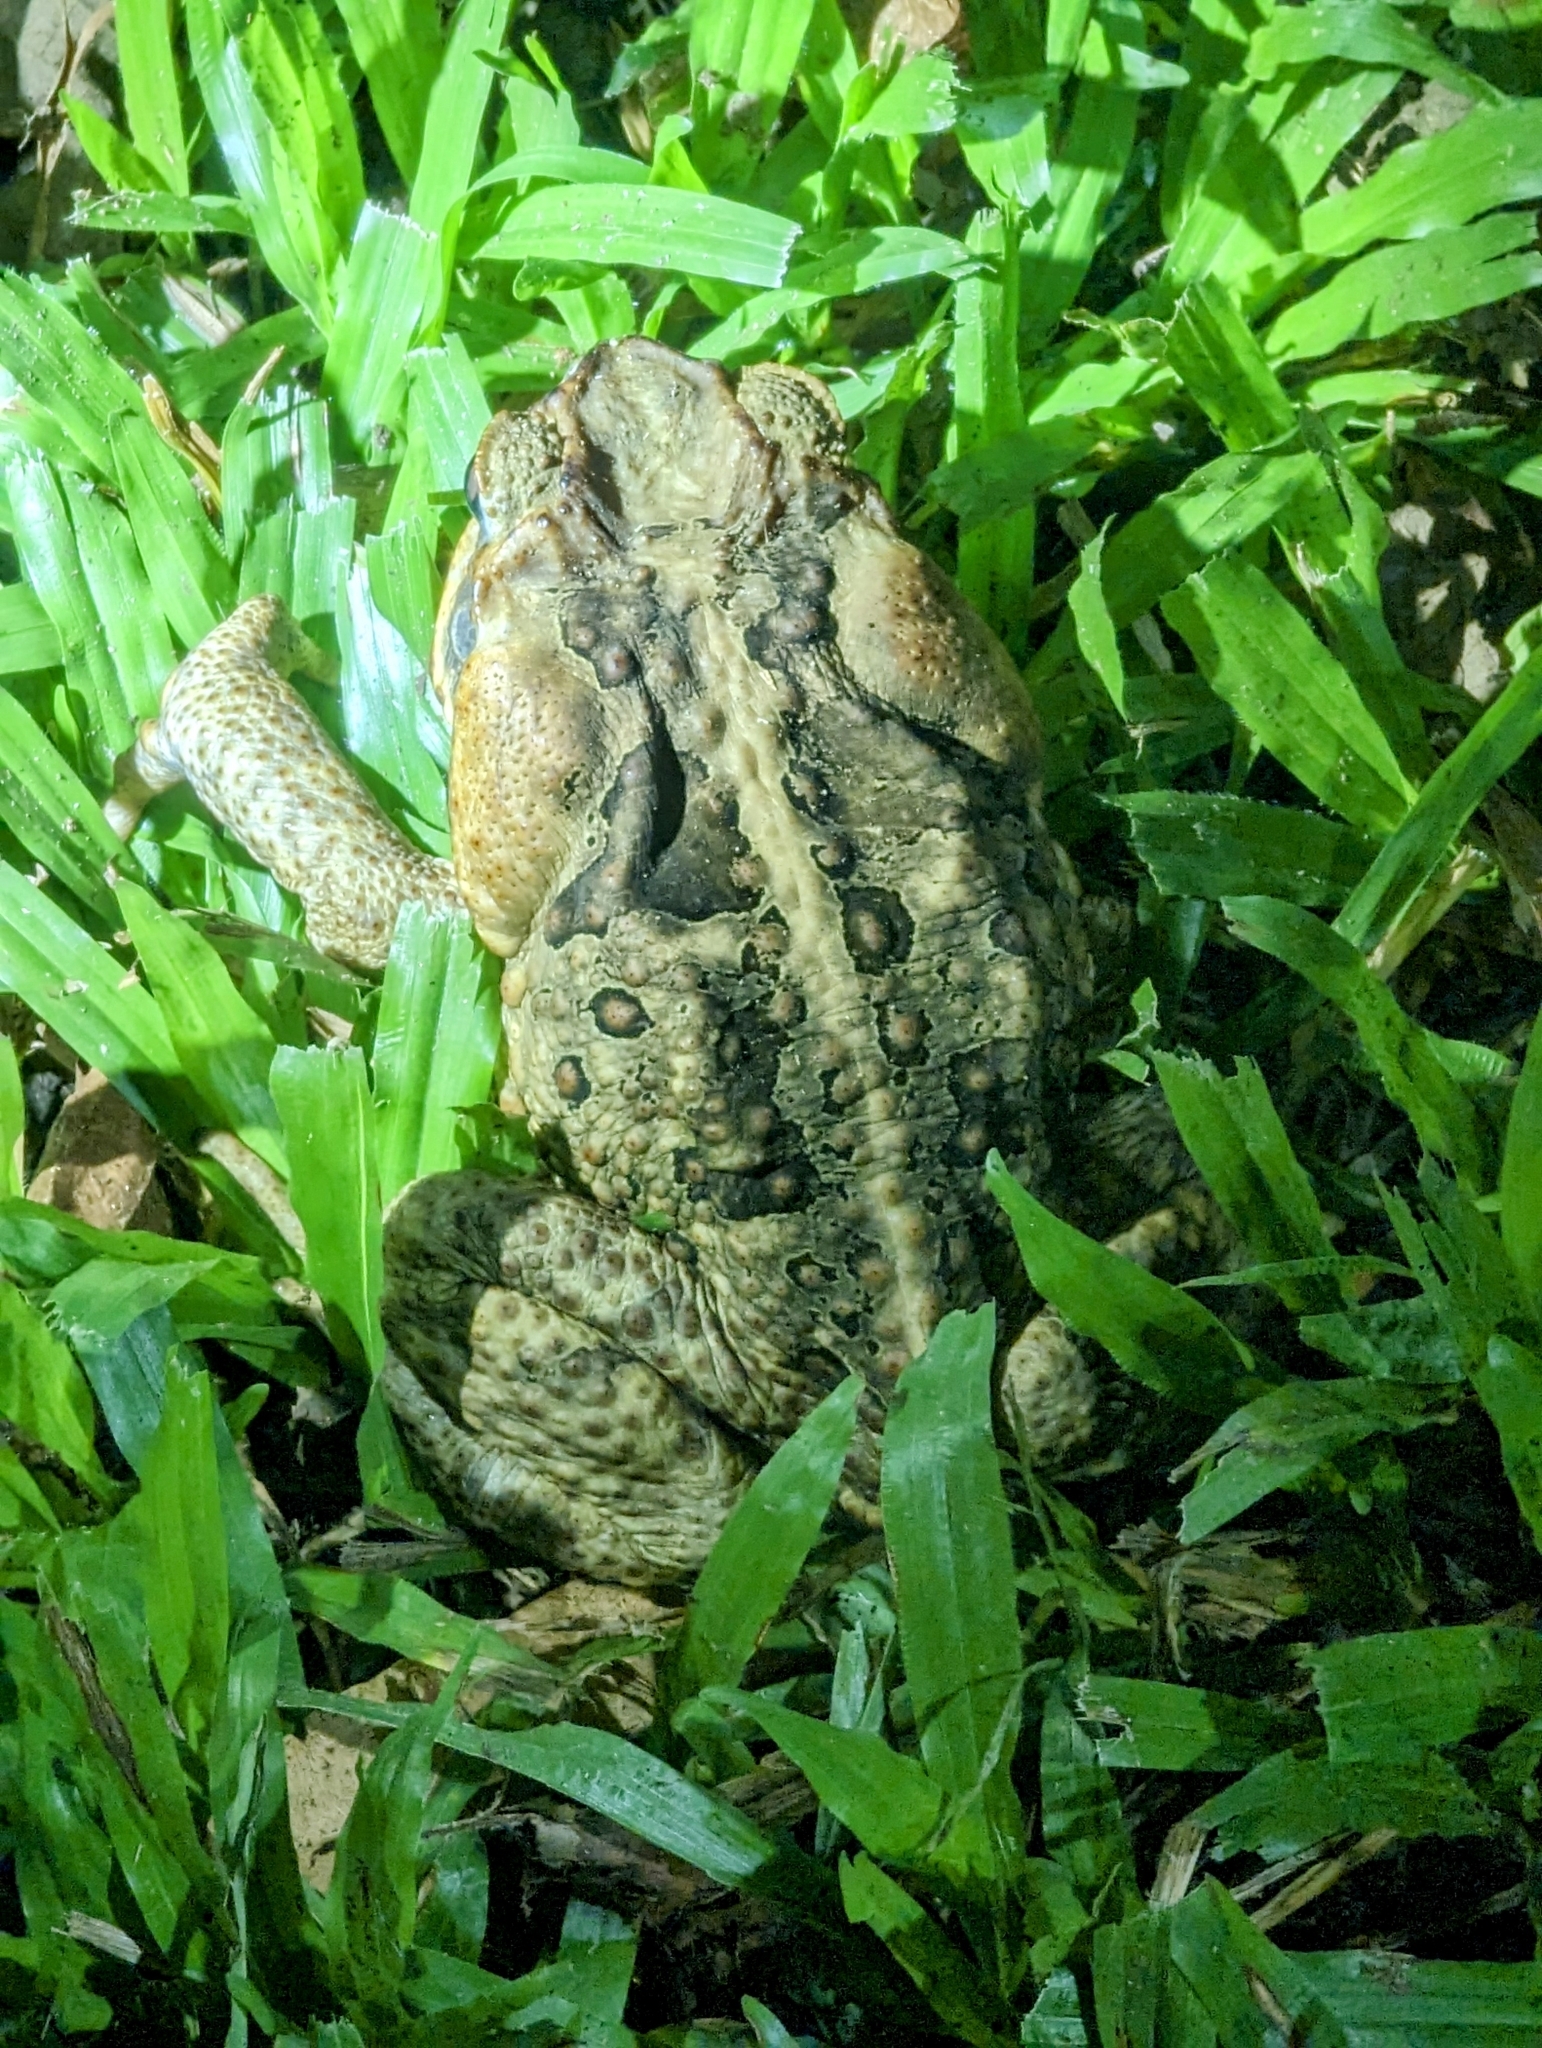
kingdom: Animalia
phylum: Chordata
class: Amphibia
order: Anura
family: Bufonidae
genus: Rhinella
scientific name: Rhinella marina
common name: Cane toad
